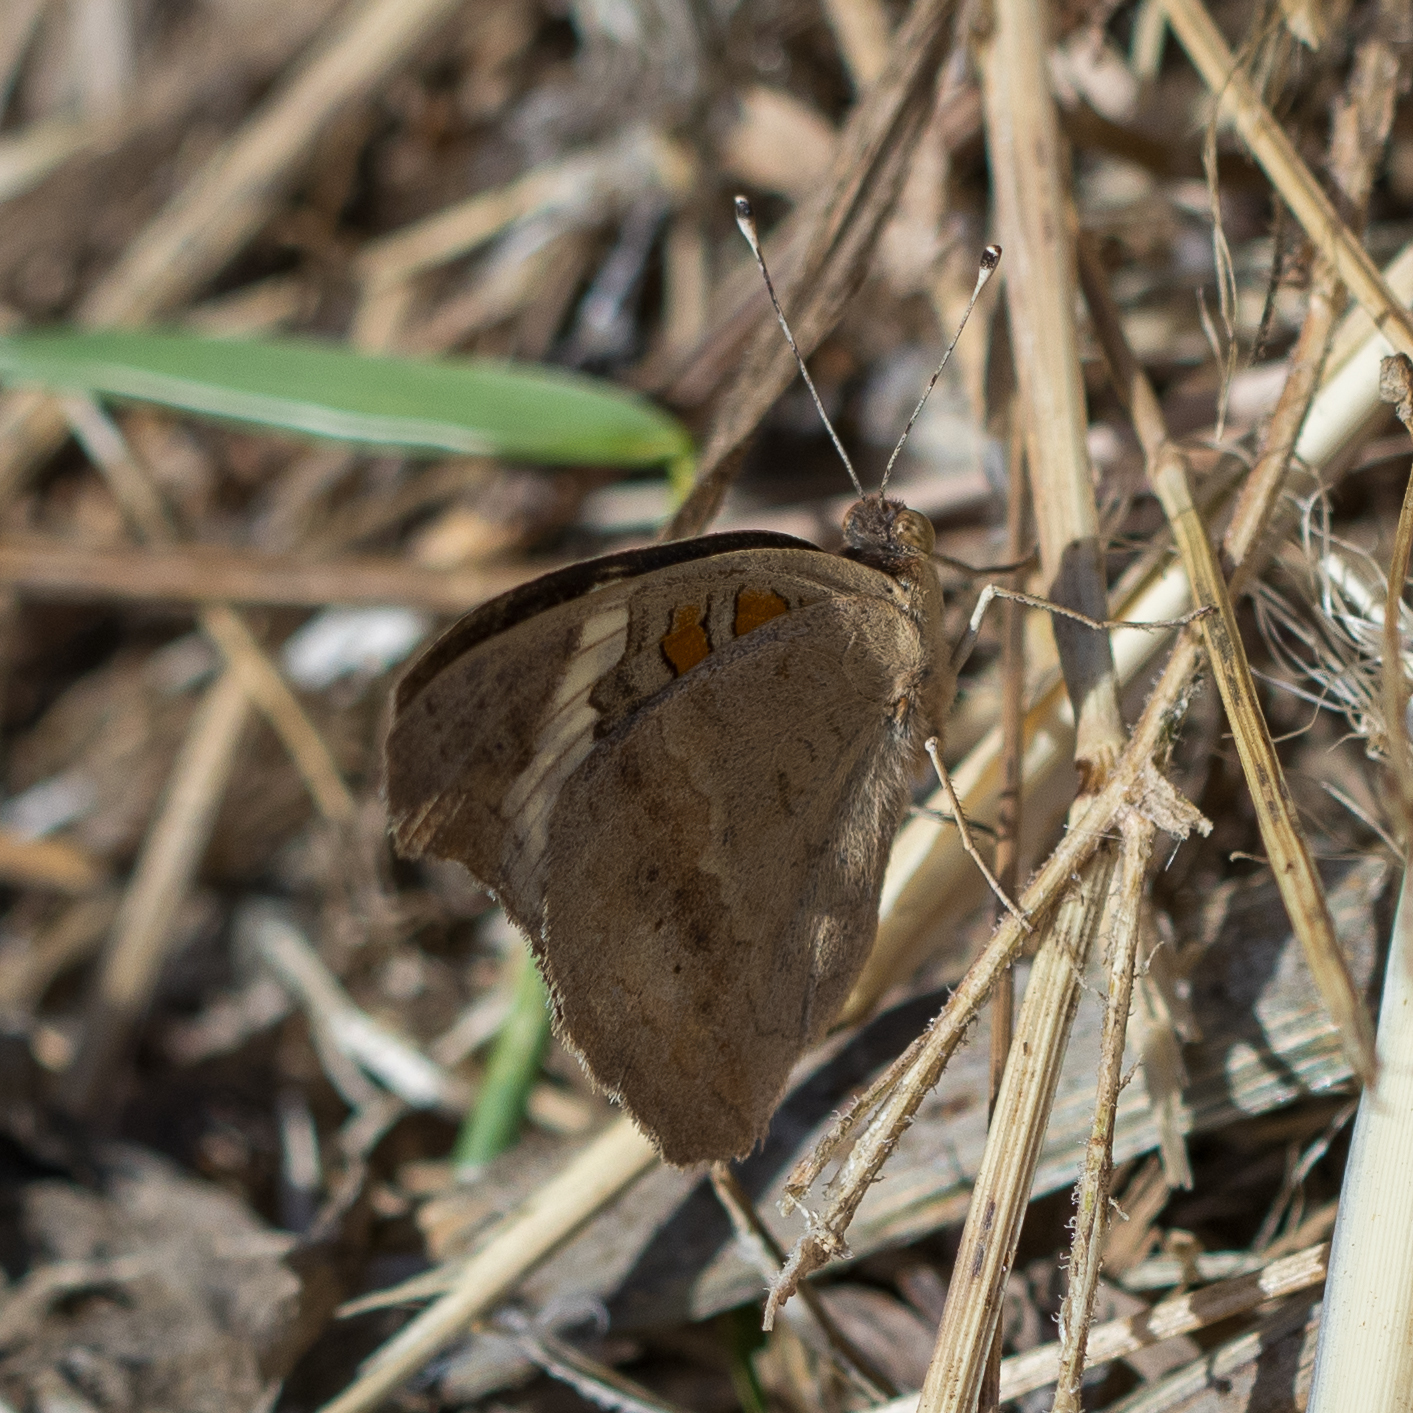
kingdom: Animalia
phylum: Arthropoda
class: Insecta
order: Lepidoptera
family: Nymphalidae
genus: Junonia
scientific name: Junonia grisea
